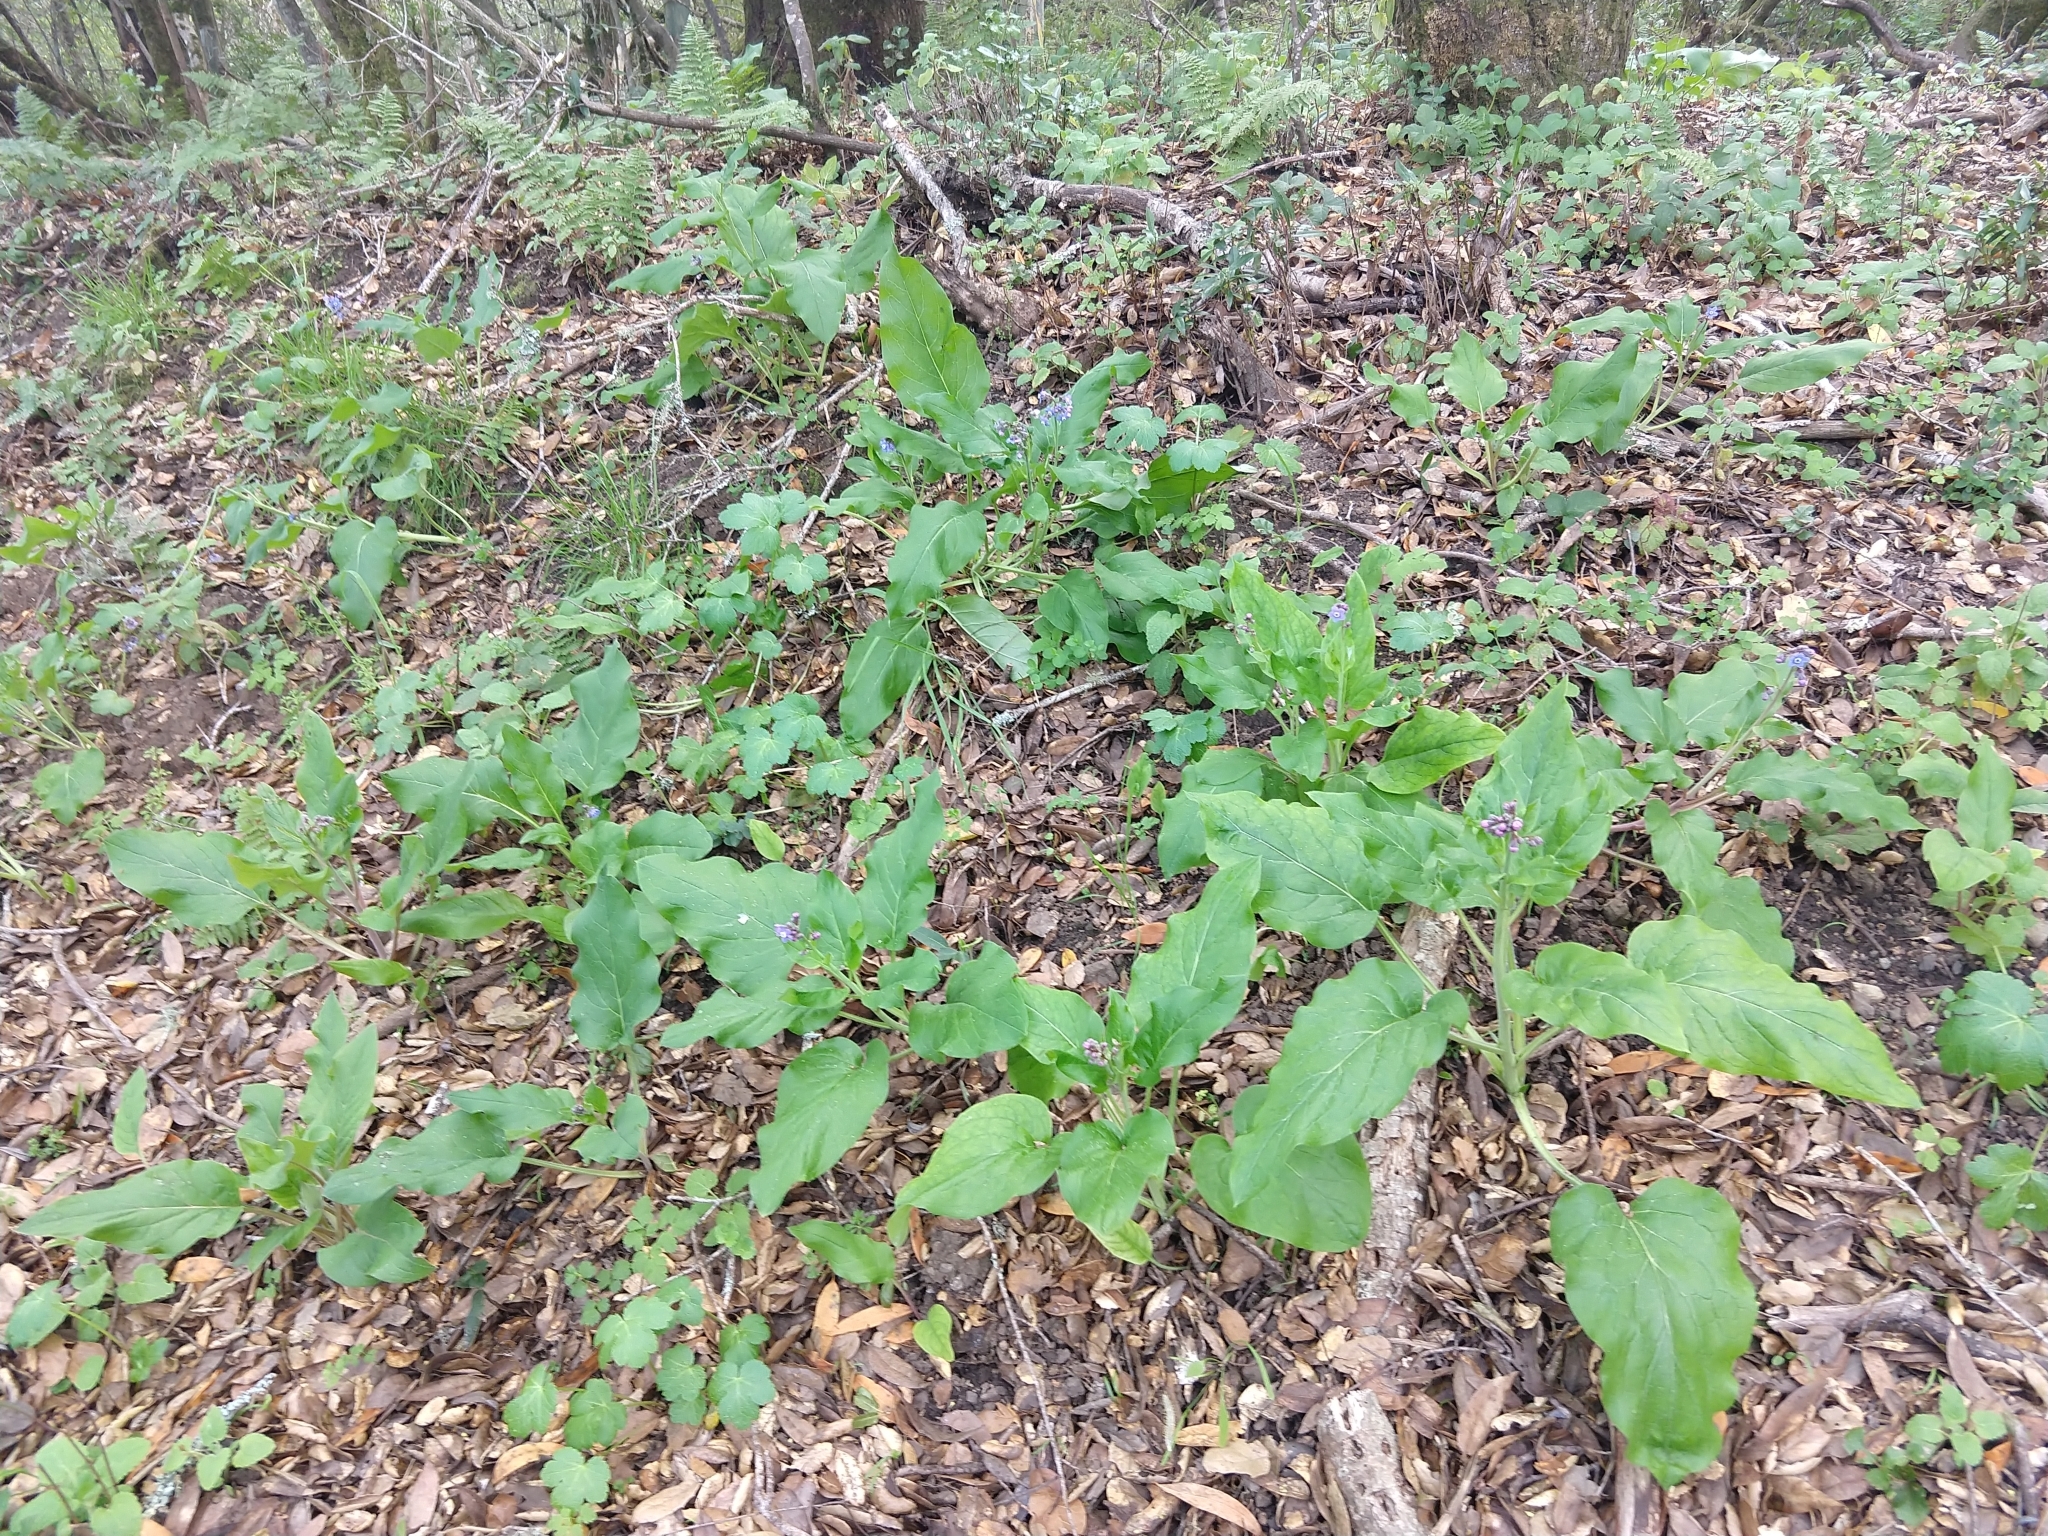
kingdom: Plantae
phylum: Tracheophyta
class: Magnoliopsida
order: Boraginales
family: Boraginaceae
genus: Adelinia
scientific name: Adelinia grande
